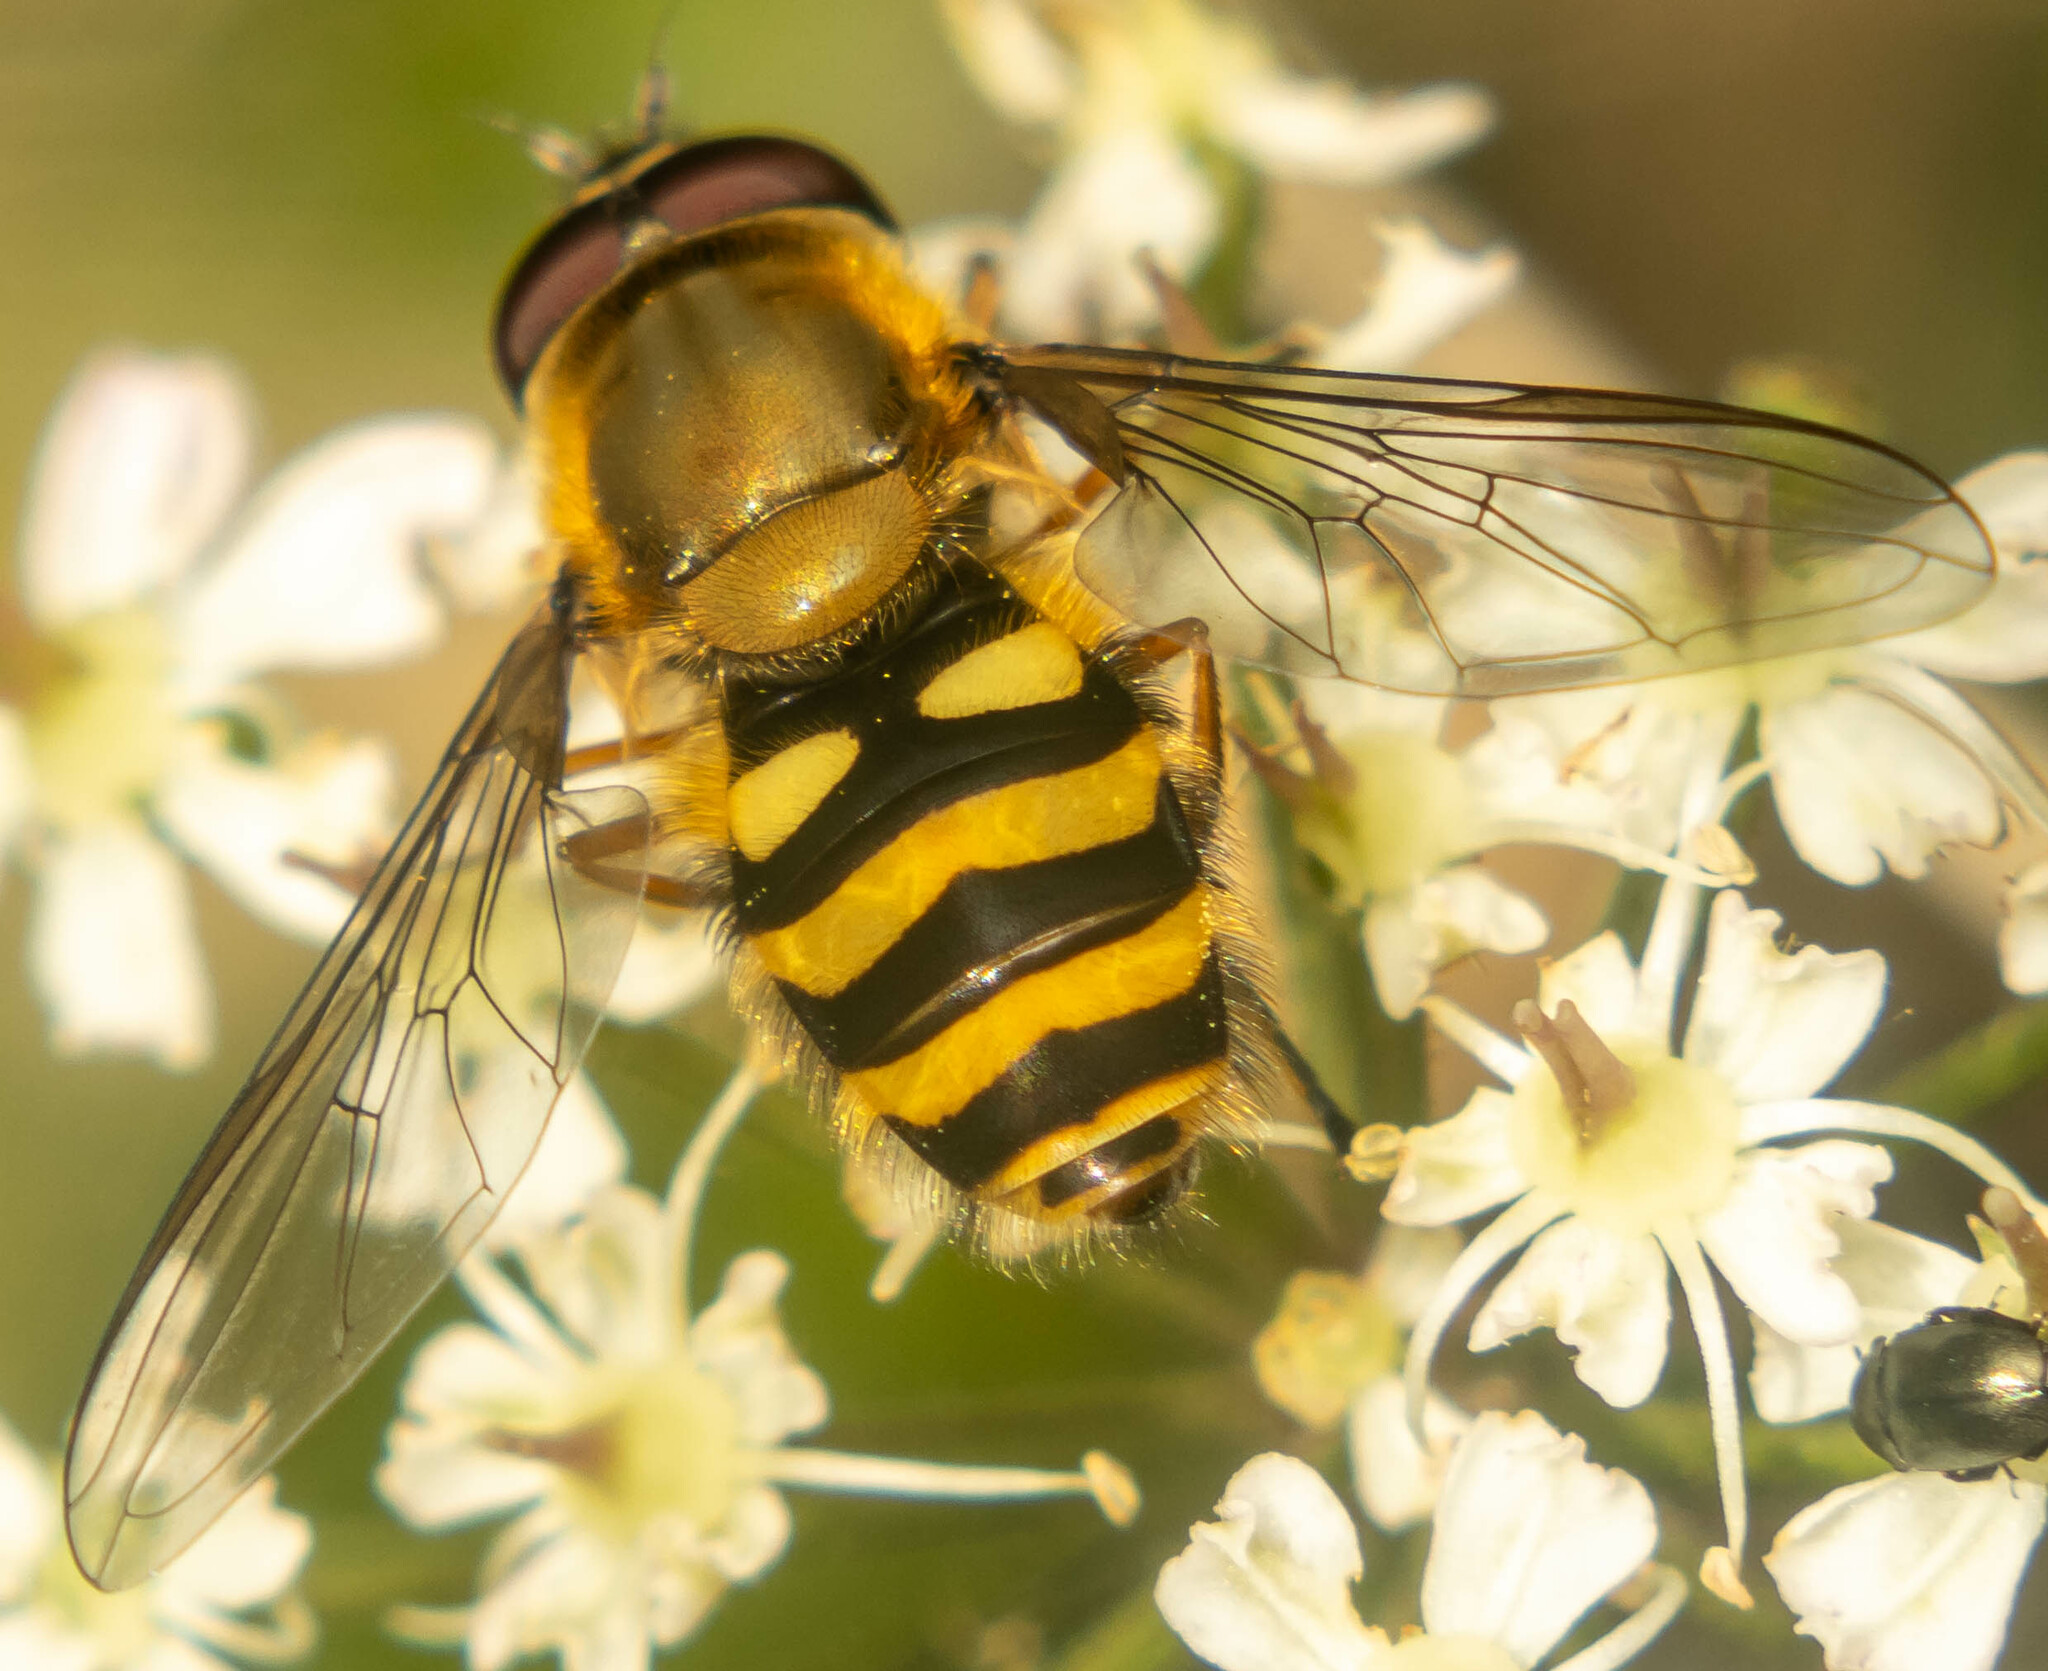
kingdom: Animalia
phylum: Arthropoda
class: Insecta
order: Diptera
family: Syrphidae
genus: Syrphus
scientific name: Syrphus
